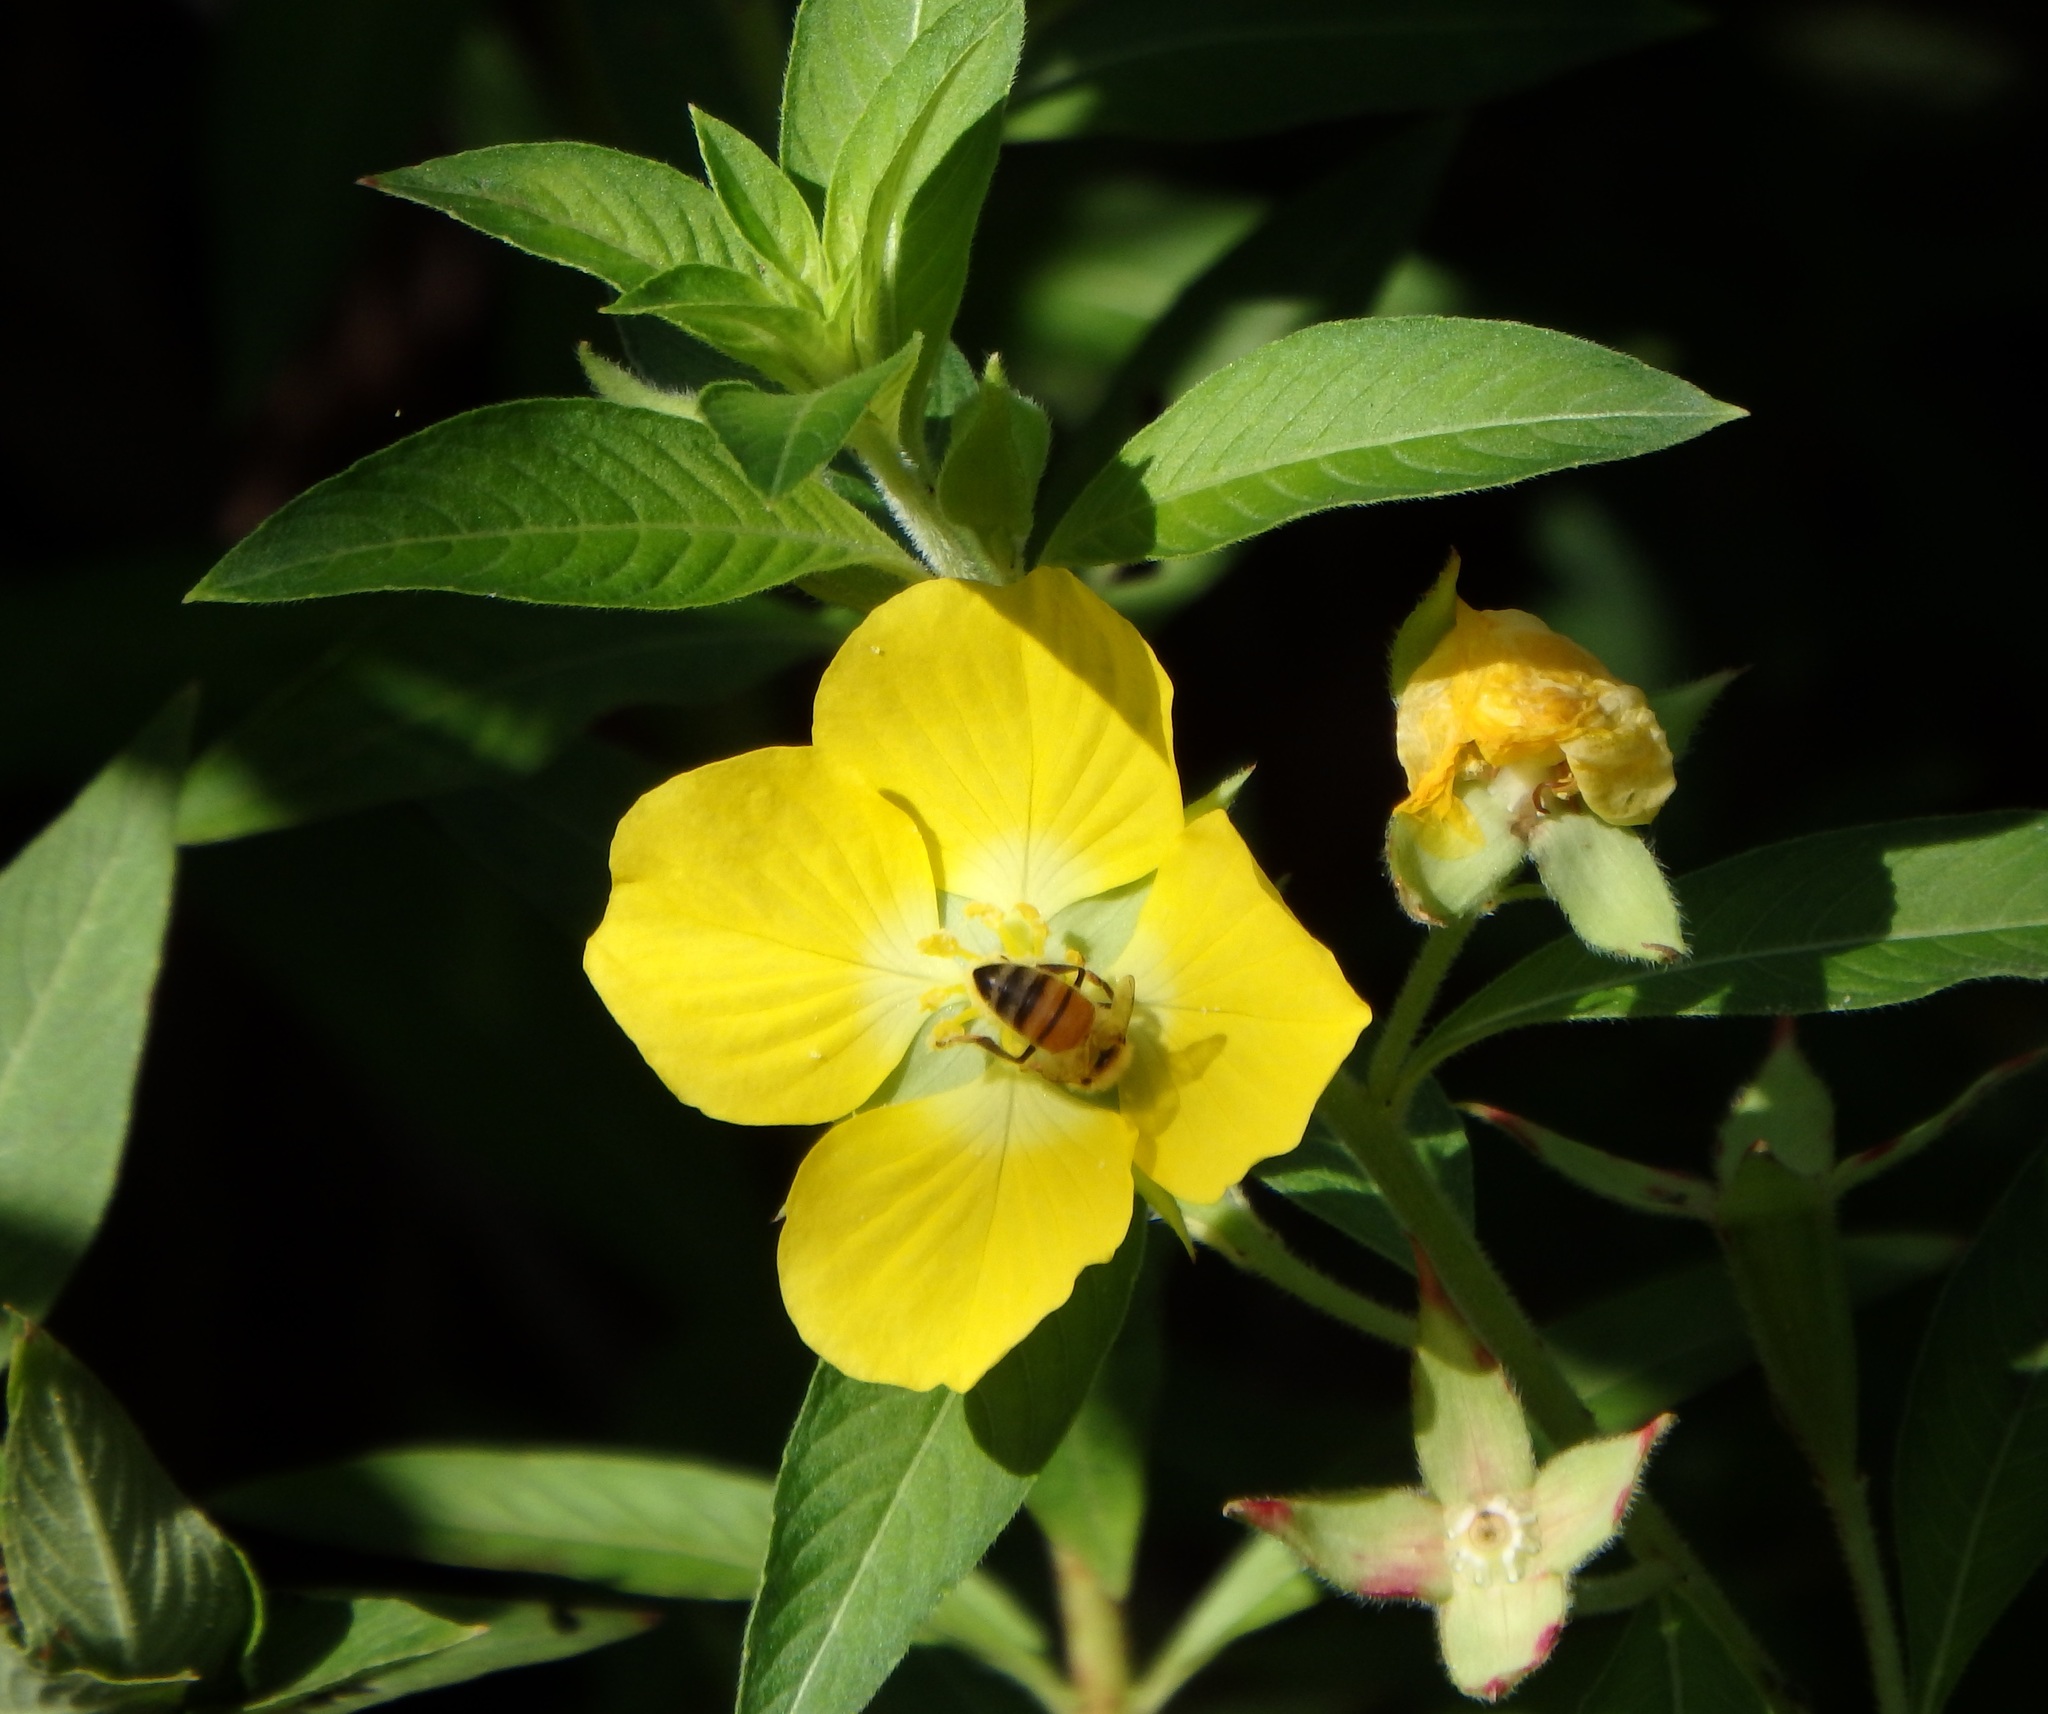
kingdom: Plantae
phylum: Tracheophyta
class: Magnoliopsida
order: Myrtales
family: Onagraceae
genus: Ludwigia
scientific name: Ludwigia peruviana
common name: Peruvian primrose-willow
